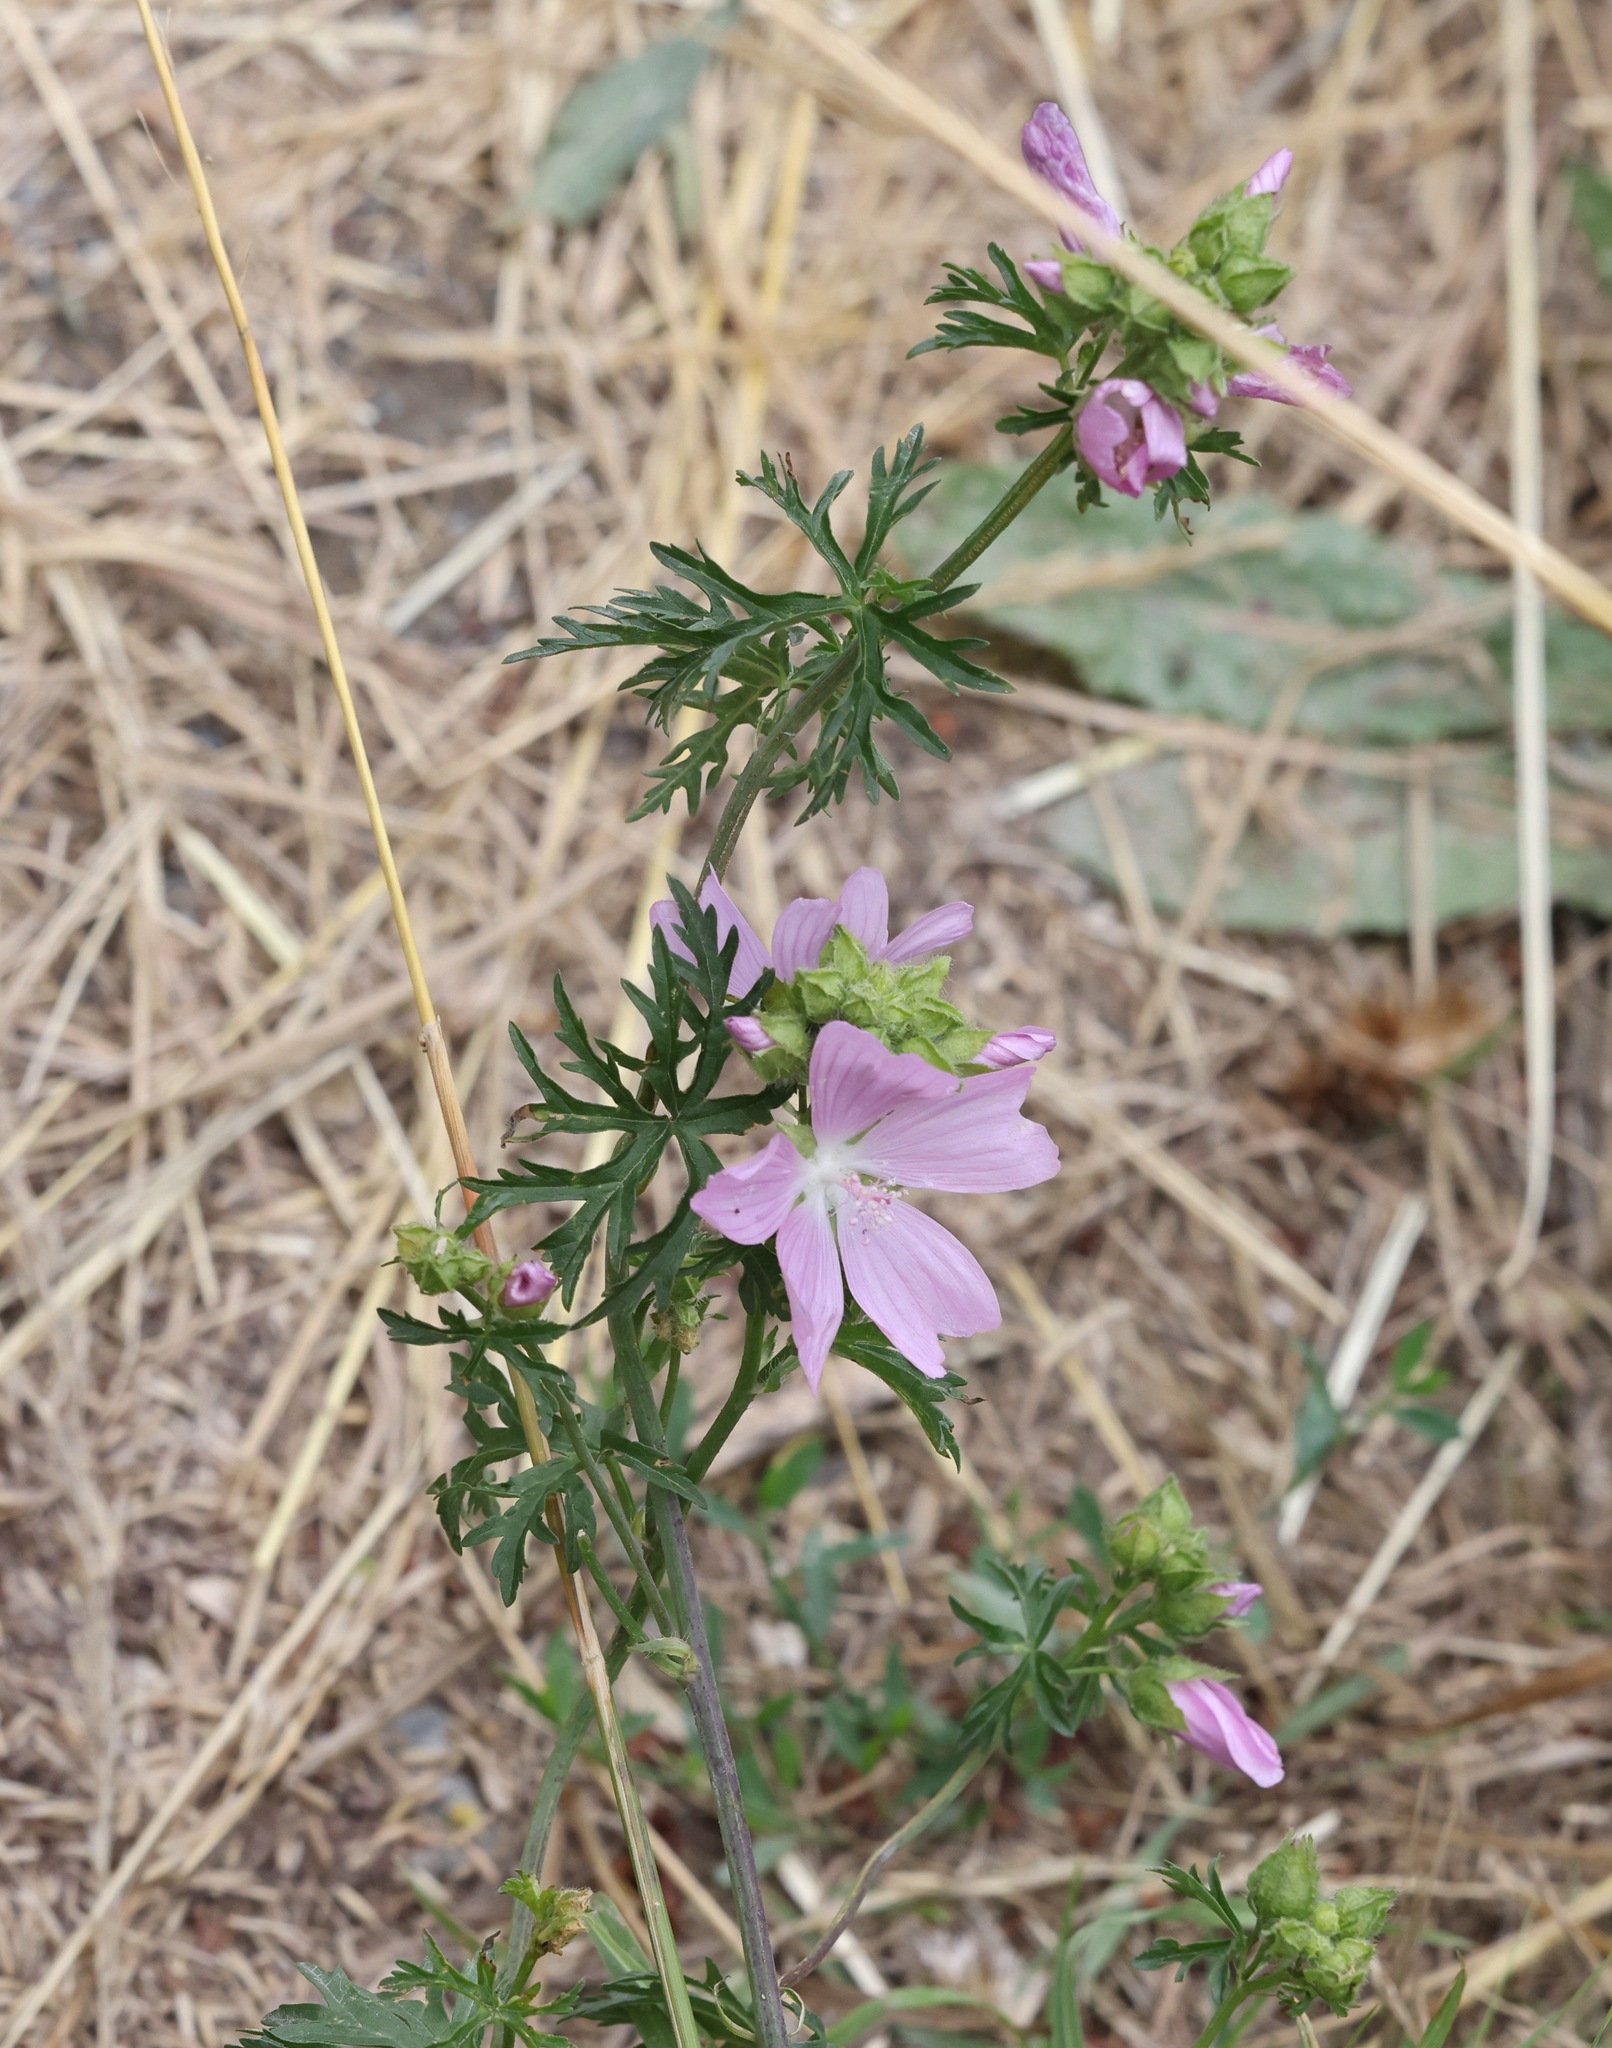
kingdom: Plantae
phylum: Tracheophyta
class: Magnoliopsida
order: Malvales
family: Malvaceae
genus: Malva
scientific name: Malva moschata
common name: Musk mallow
